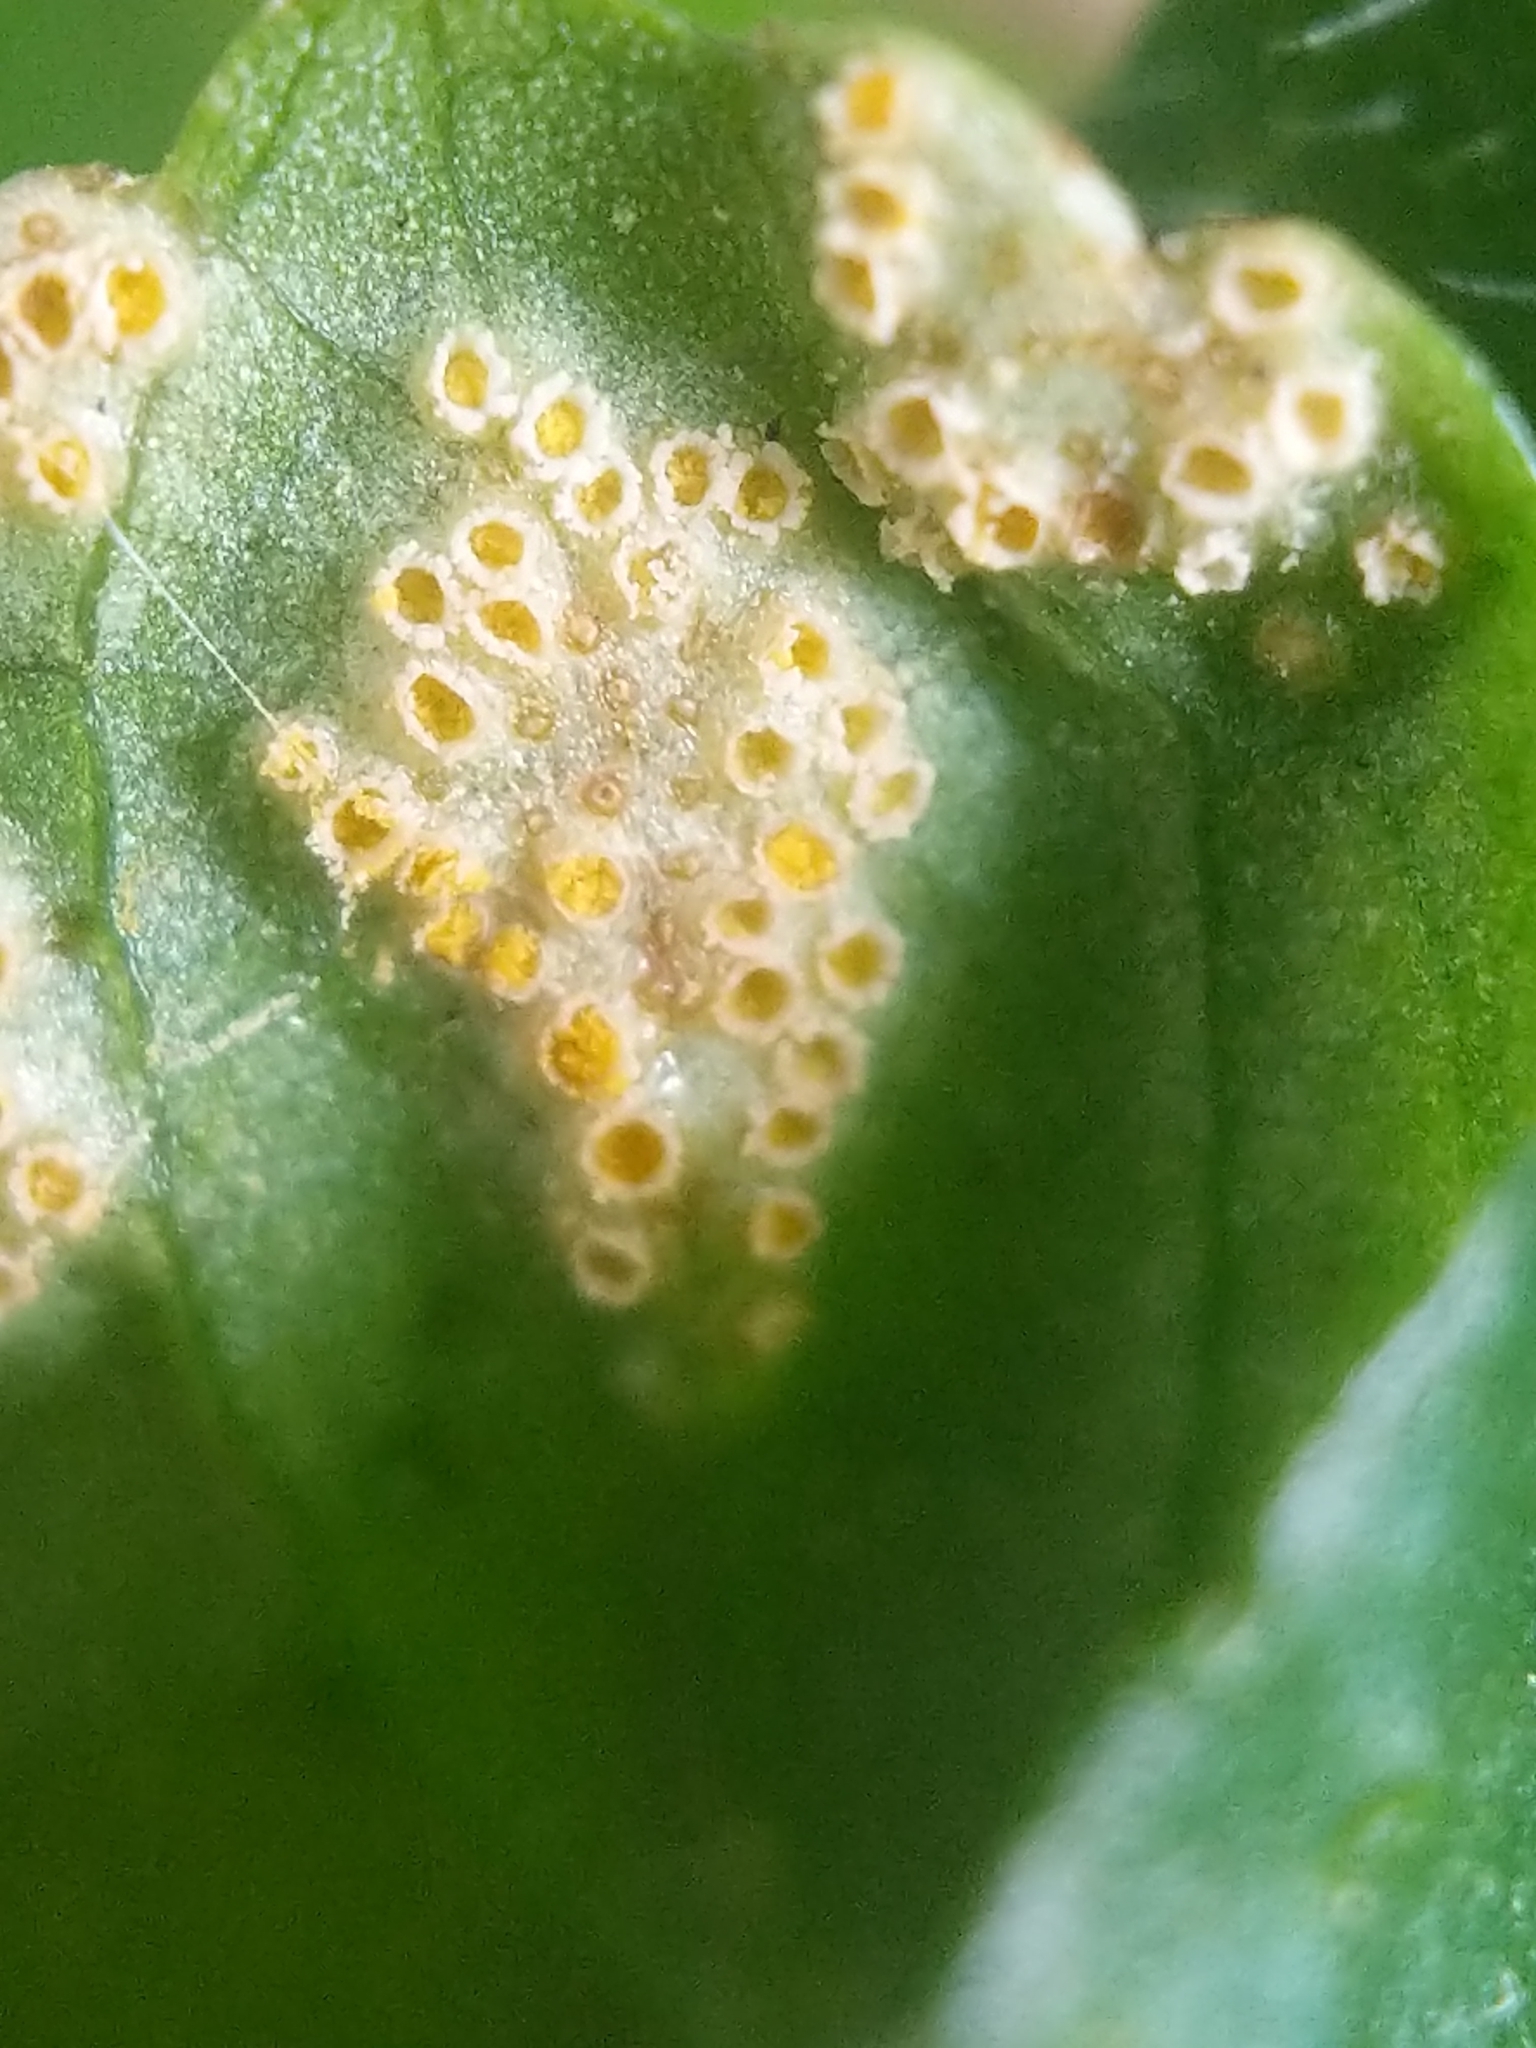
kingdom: Fungi
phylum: Basidiomycota
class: Pucciniomycetes
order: Pucciniales
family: Pucciniaceae
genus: Puccinia
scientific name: Puccinia violae
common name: Violet rust
